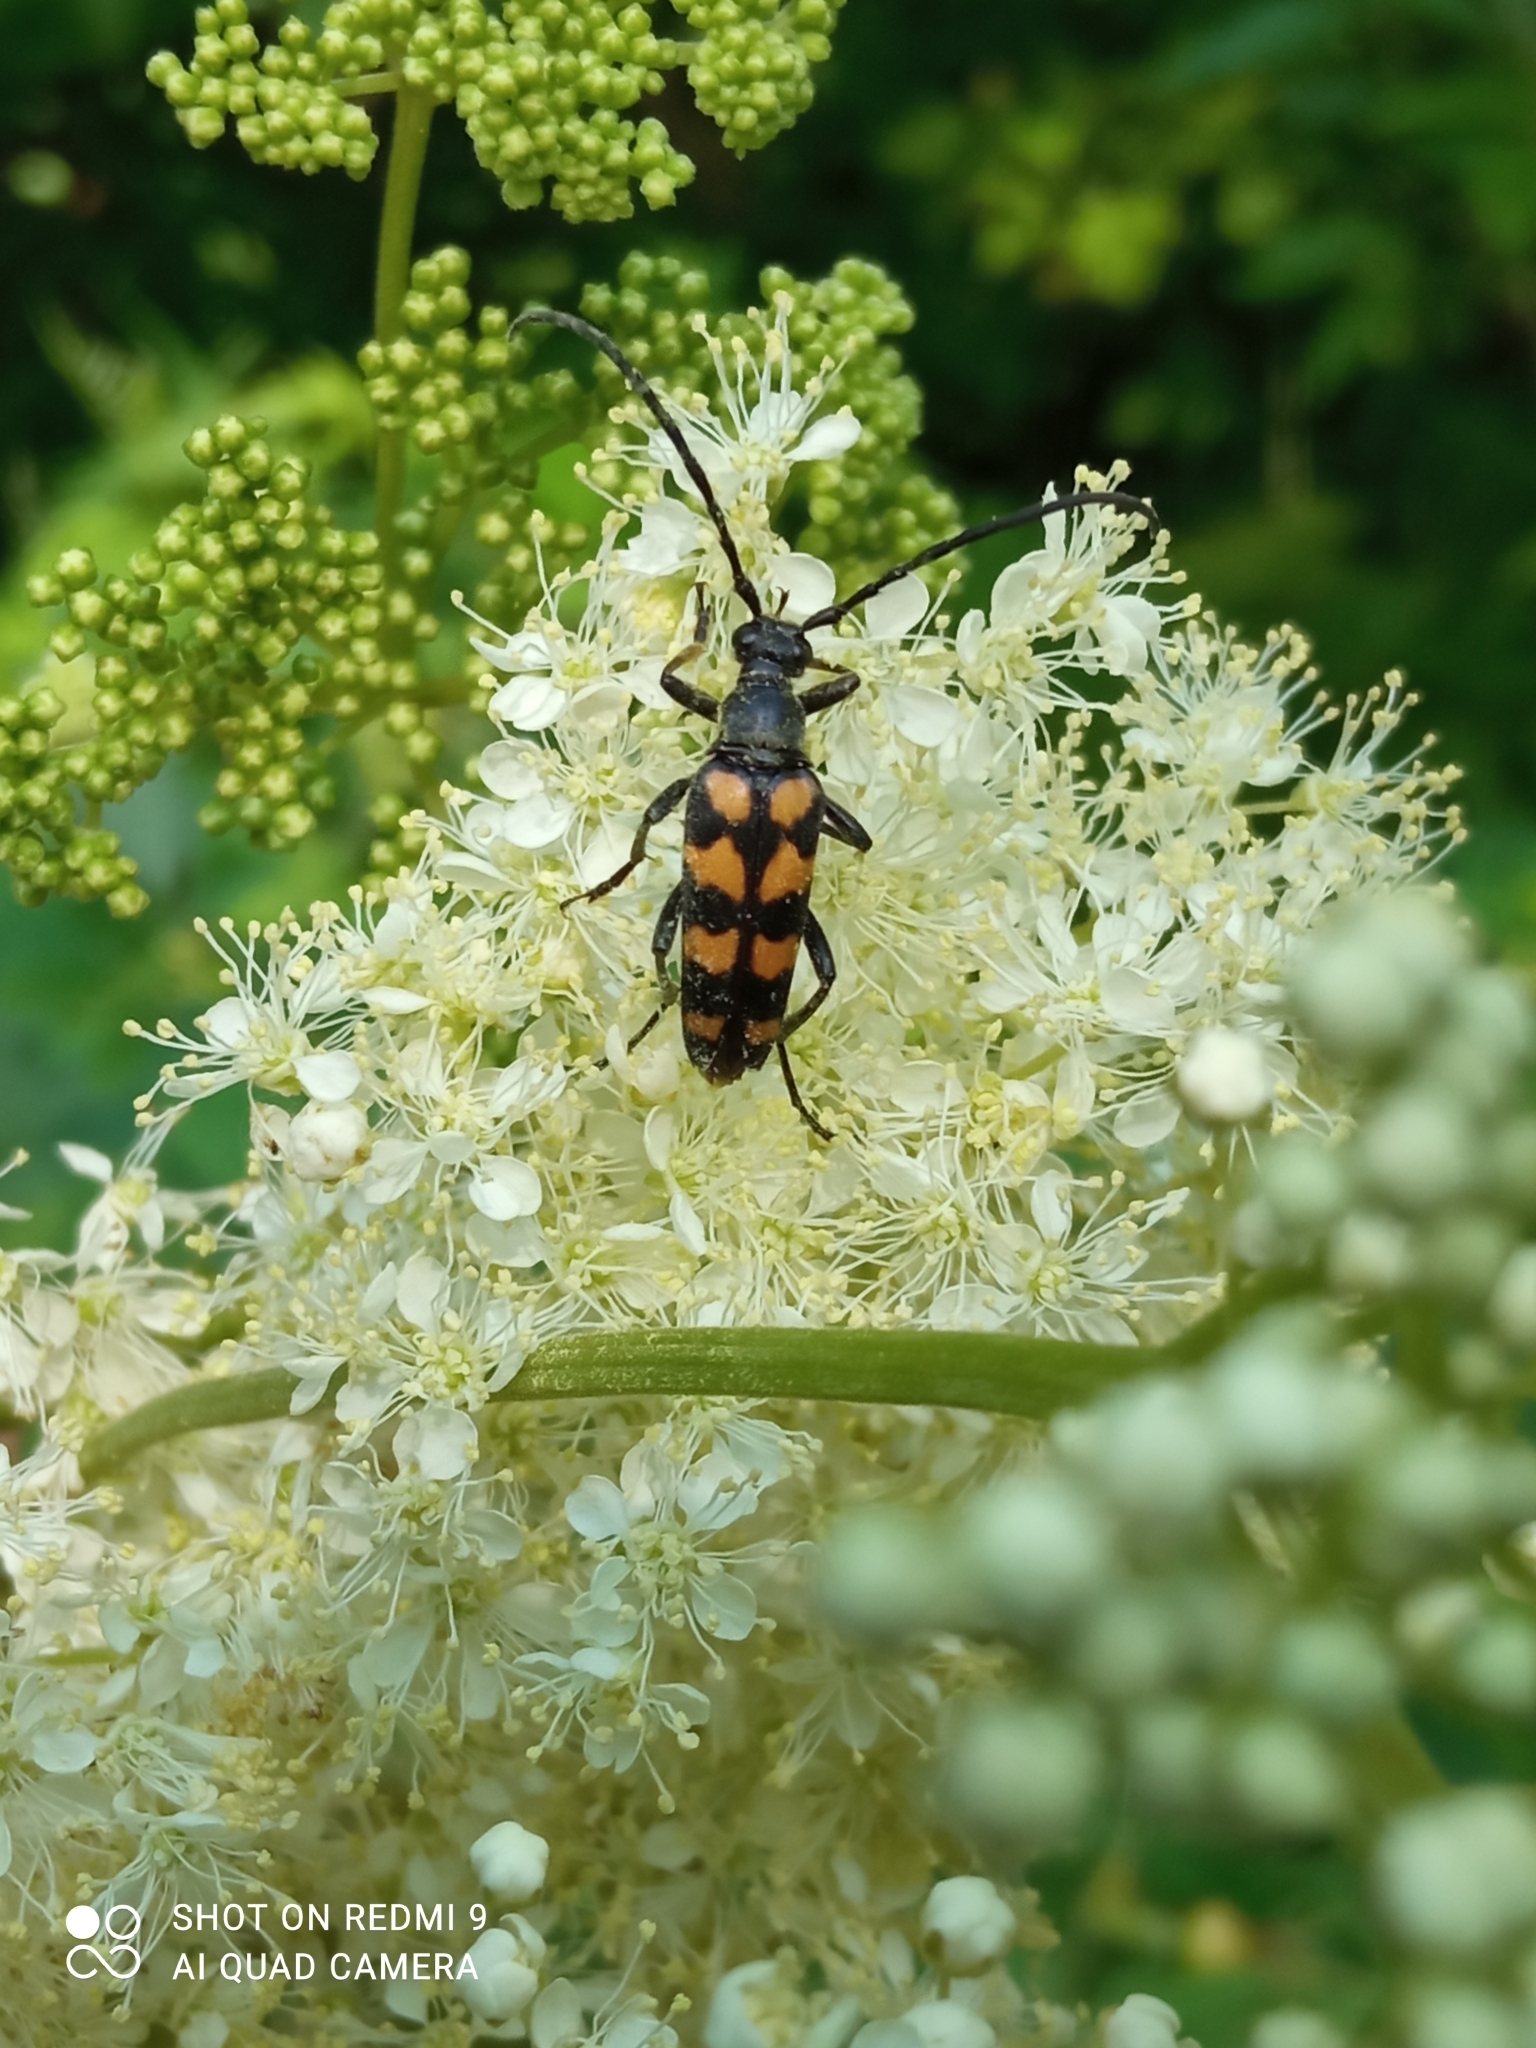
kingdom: Animalia
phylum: Arthropoda
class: Insecta
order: Coleoptera
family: Cerambycidae
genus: Leptura
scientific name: Leptura quadrifasciata
